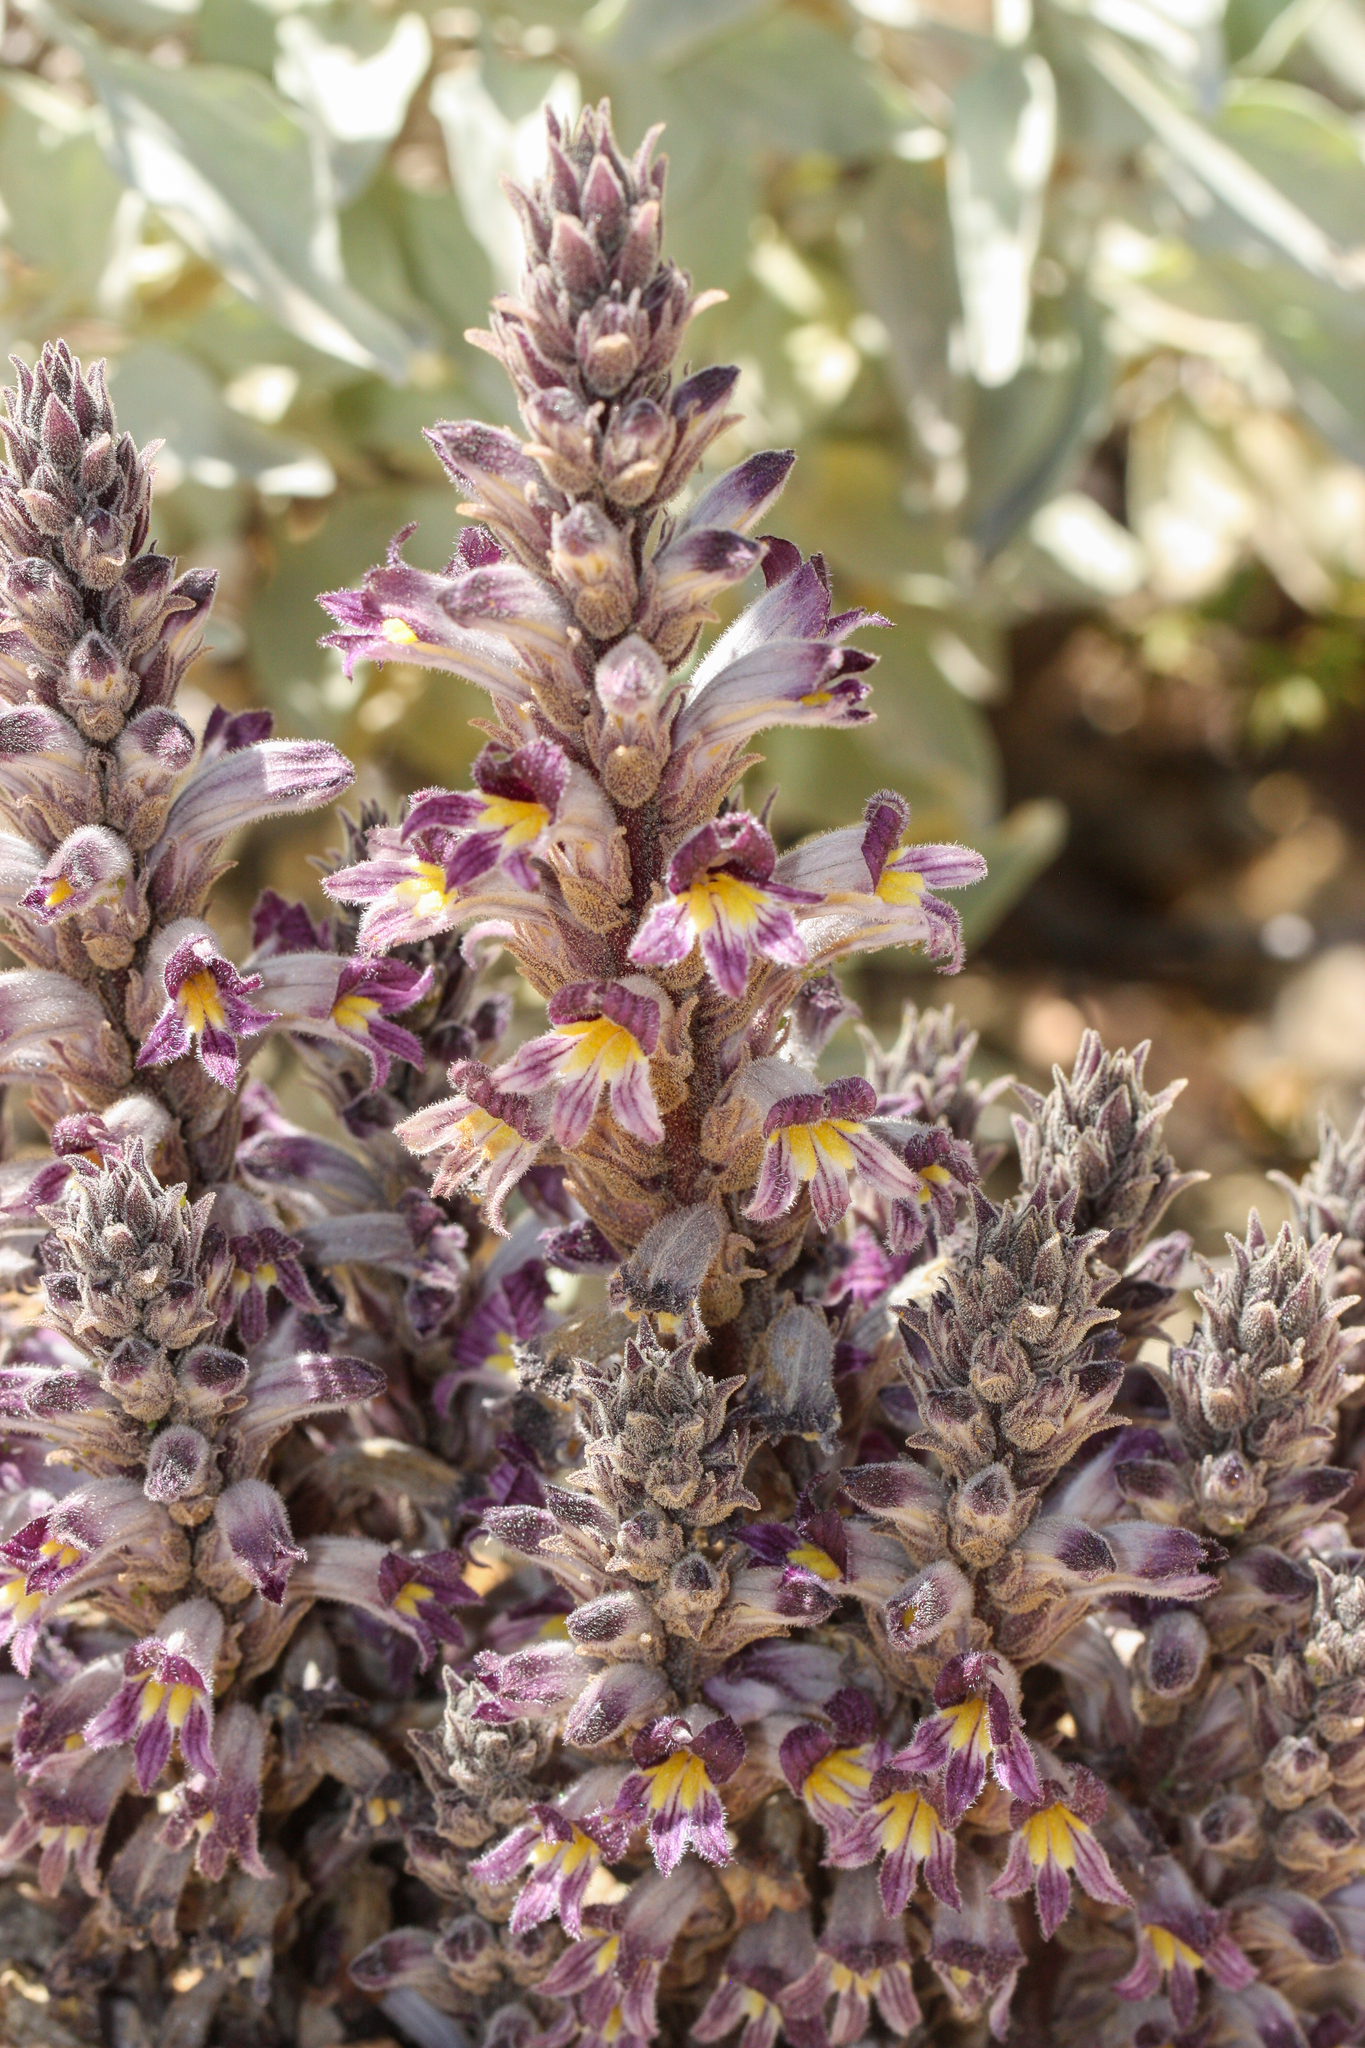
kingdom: Plantae
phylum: Tracheophyta
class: Magnoliopsida
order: Lamiales
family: Orobanchaceae
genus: Aphyllon
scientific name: Aphyllon cooperi
